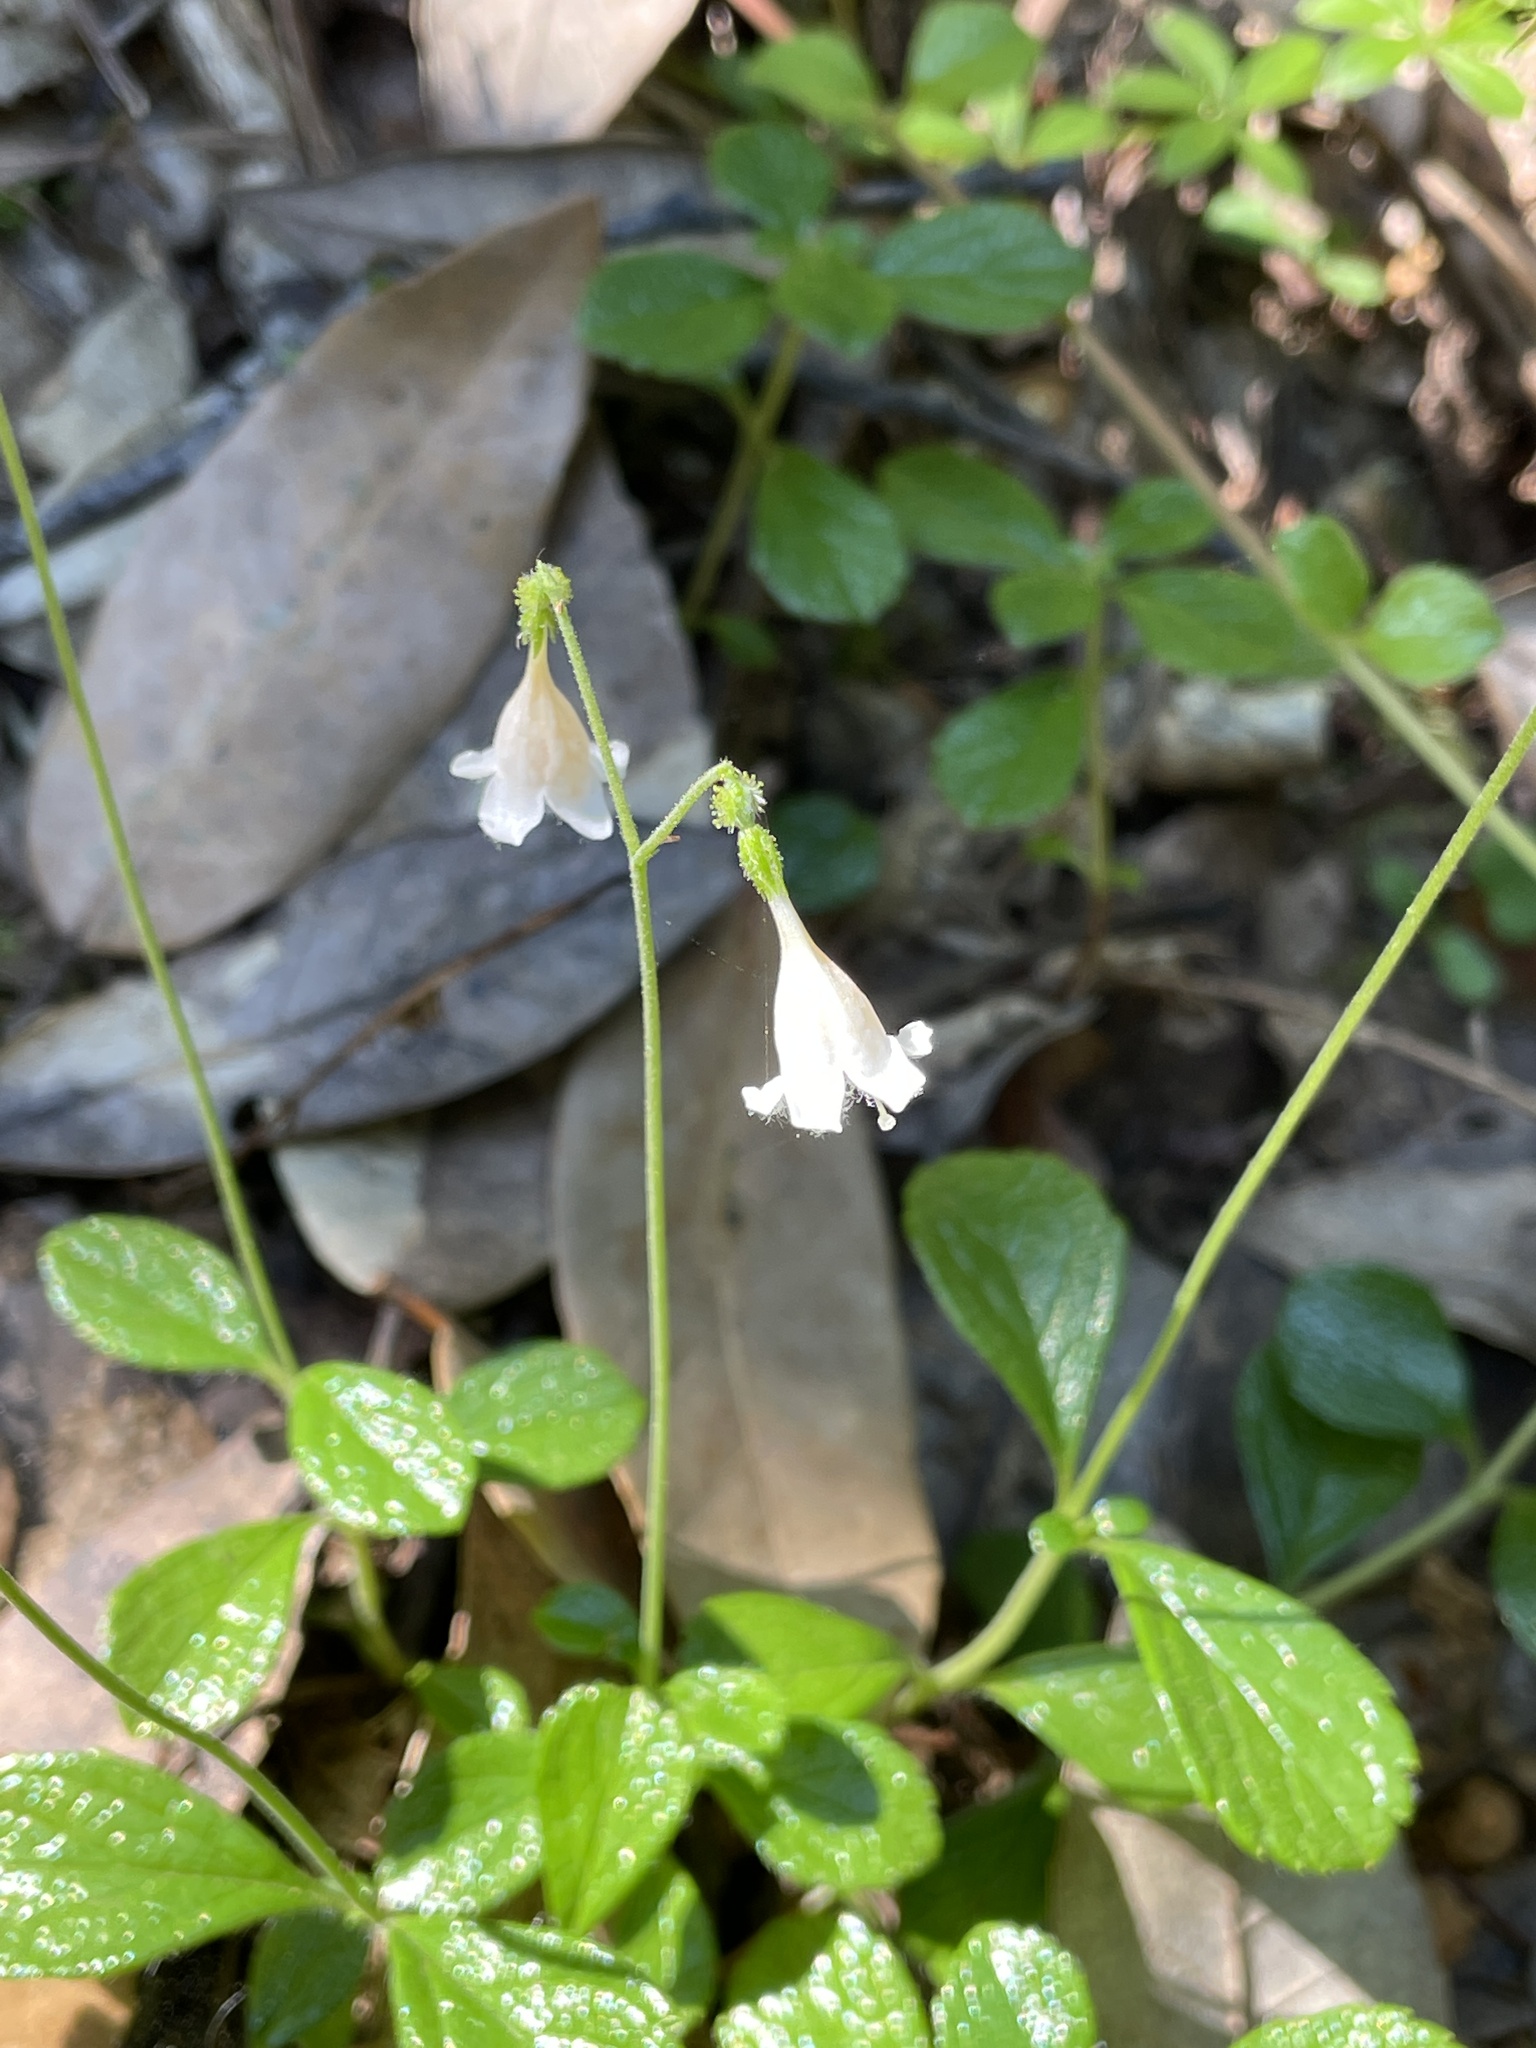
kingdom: Plantae
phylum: Tracheophyta
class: Magnoliopsida
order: Dipsacales
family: Caprifoliaceae
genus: Linnaea
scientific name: Linnaea borealis
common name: Twinflower
